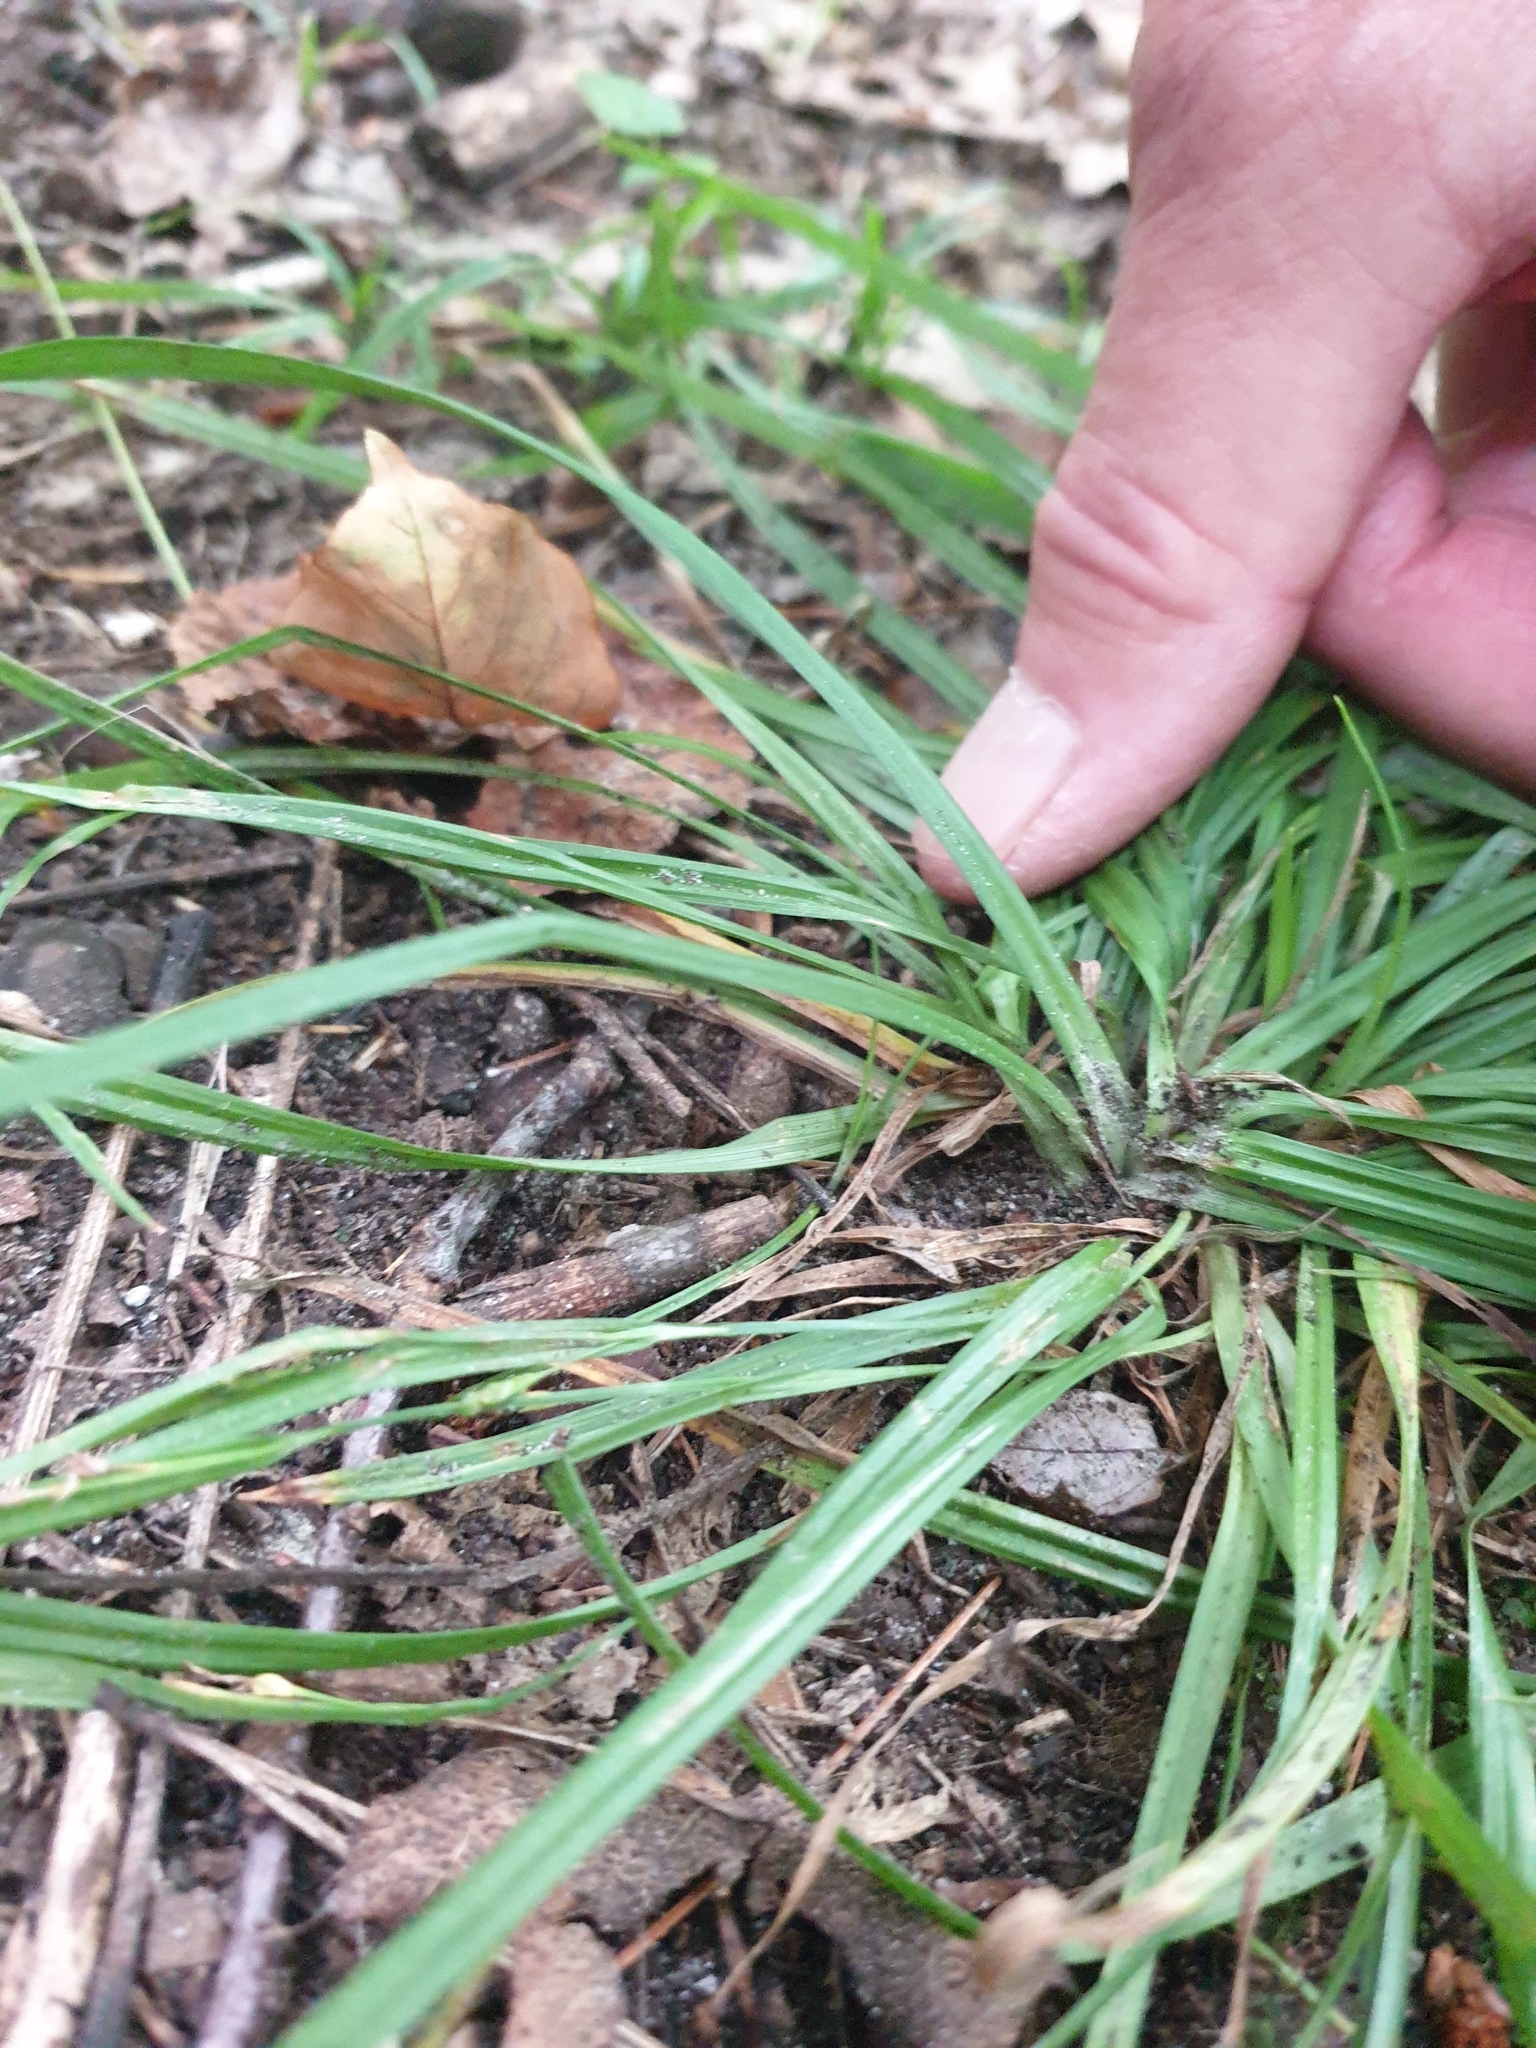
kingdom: Plantae
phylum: Tracheophyta
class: Liliopsida
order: Poales
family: Cyperaceae
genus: Carex
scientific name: Carex digitalis
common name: Slender wood sedge
